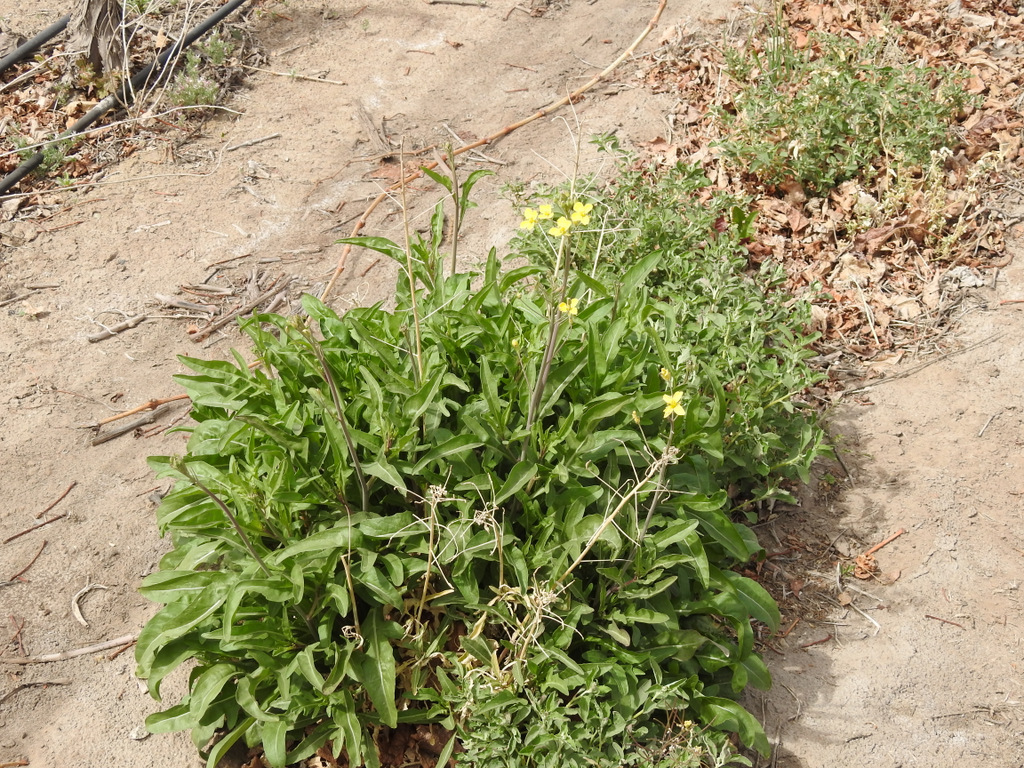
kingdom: Plantae
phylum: Tracheophyta
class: Magnoliopsida
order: Brassicales
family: Brassicaceae
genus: Diplotaxis
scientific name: Diplotaxis tenuifolia
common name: Perennial wall-rocket
